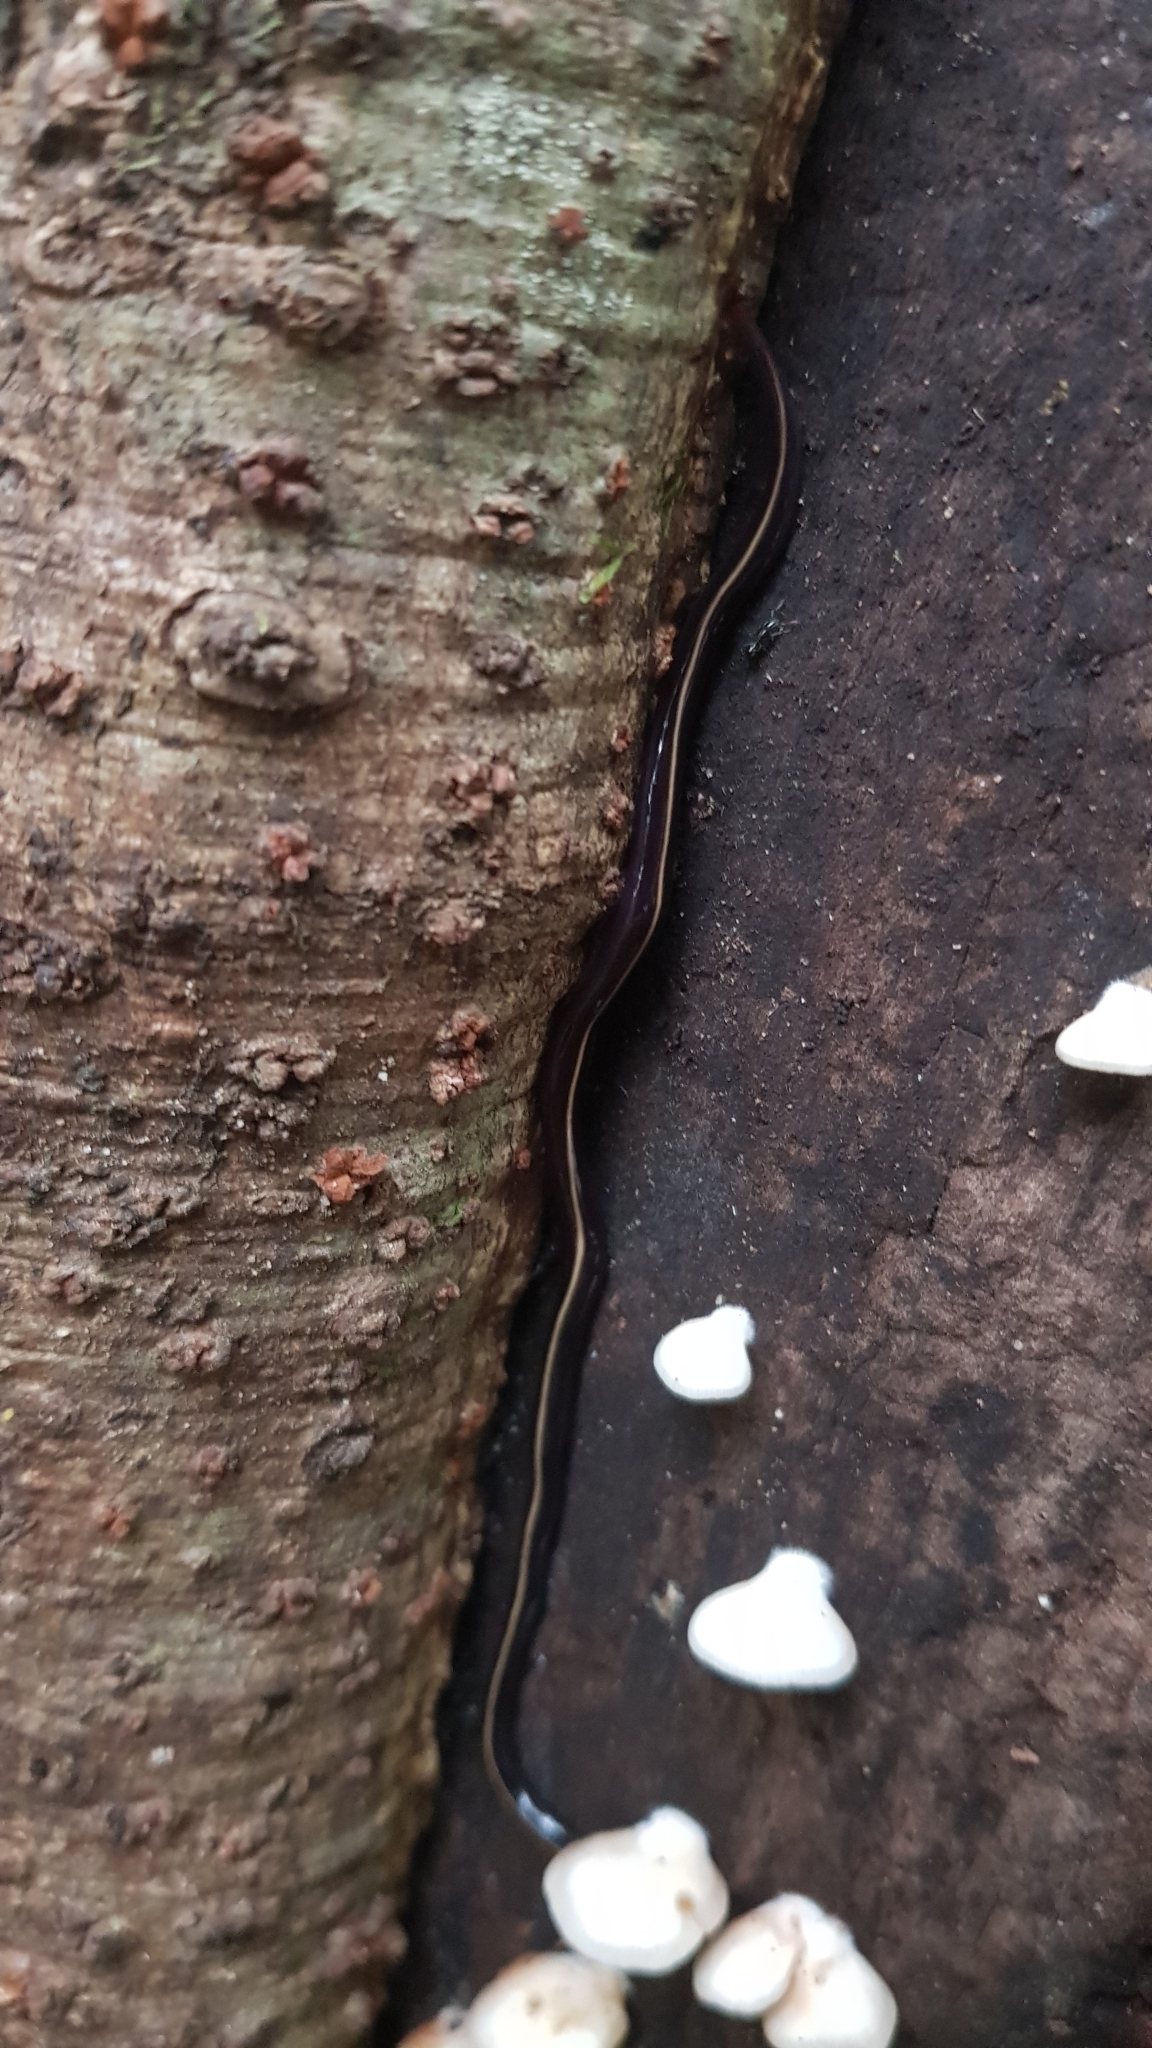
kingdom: Animalia
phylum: Platyhelminthes
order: Tricladida
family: Geoplanidae
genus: Caenoplana
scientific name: Caenoplana coerulea
